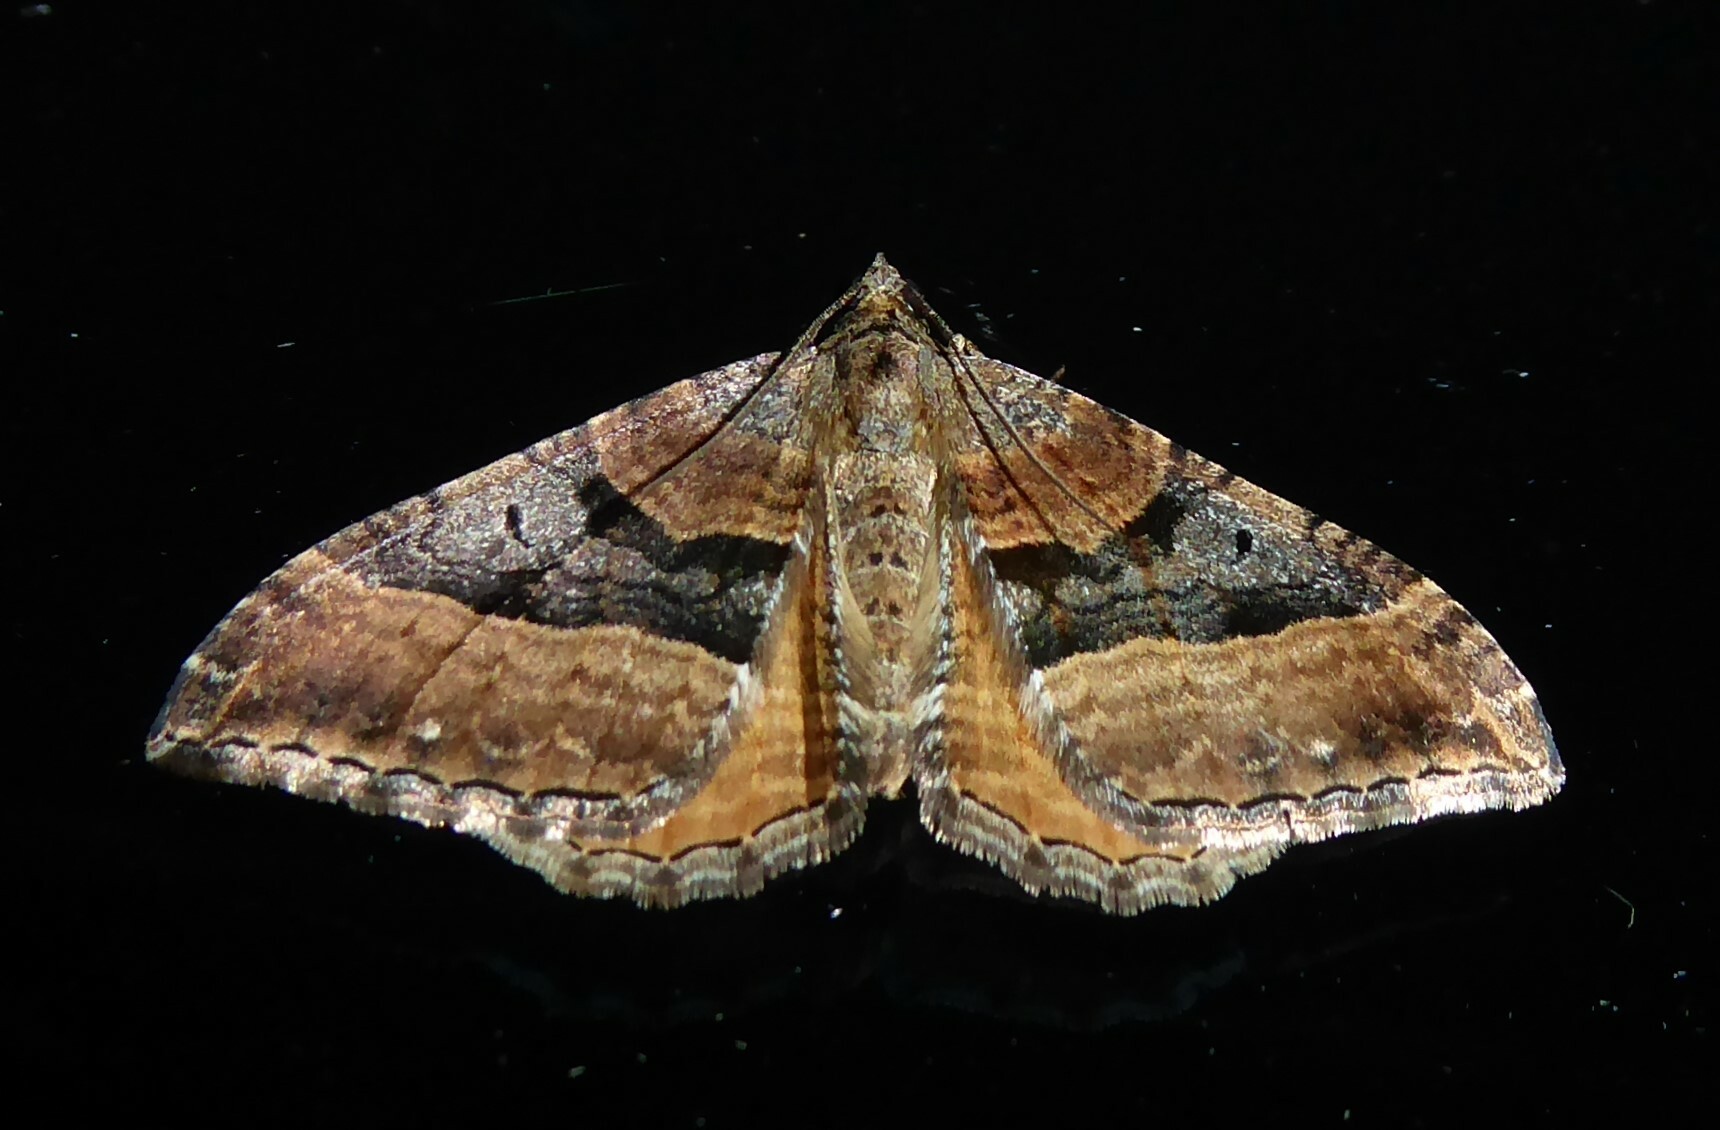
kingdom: Animalia
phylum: Arthropoda
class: Insecta
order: Lepidoptera
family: Geometridae
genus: Hydriomena
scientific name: Hydriomena deltoidata
